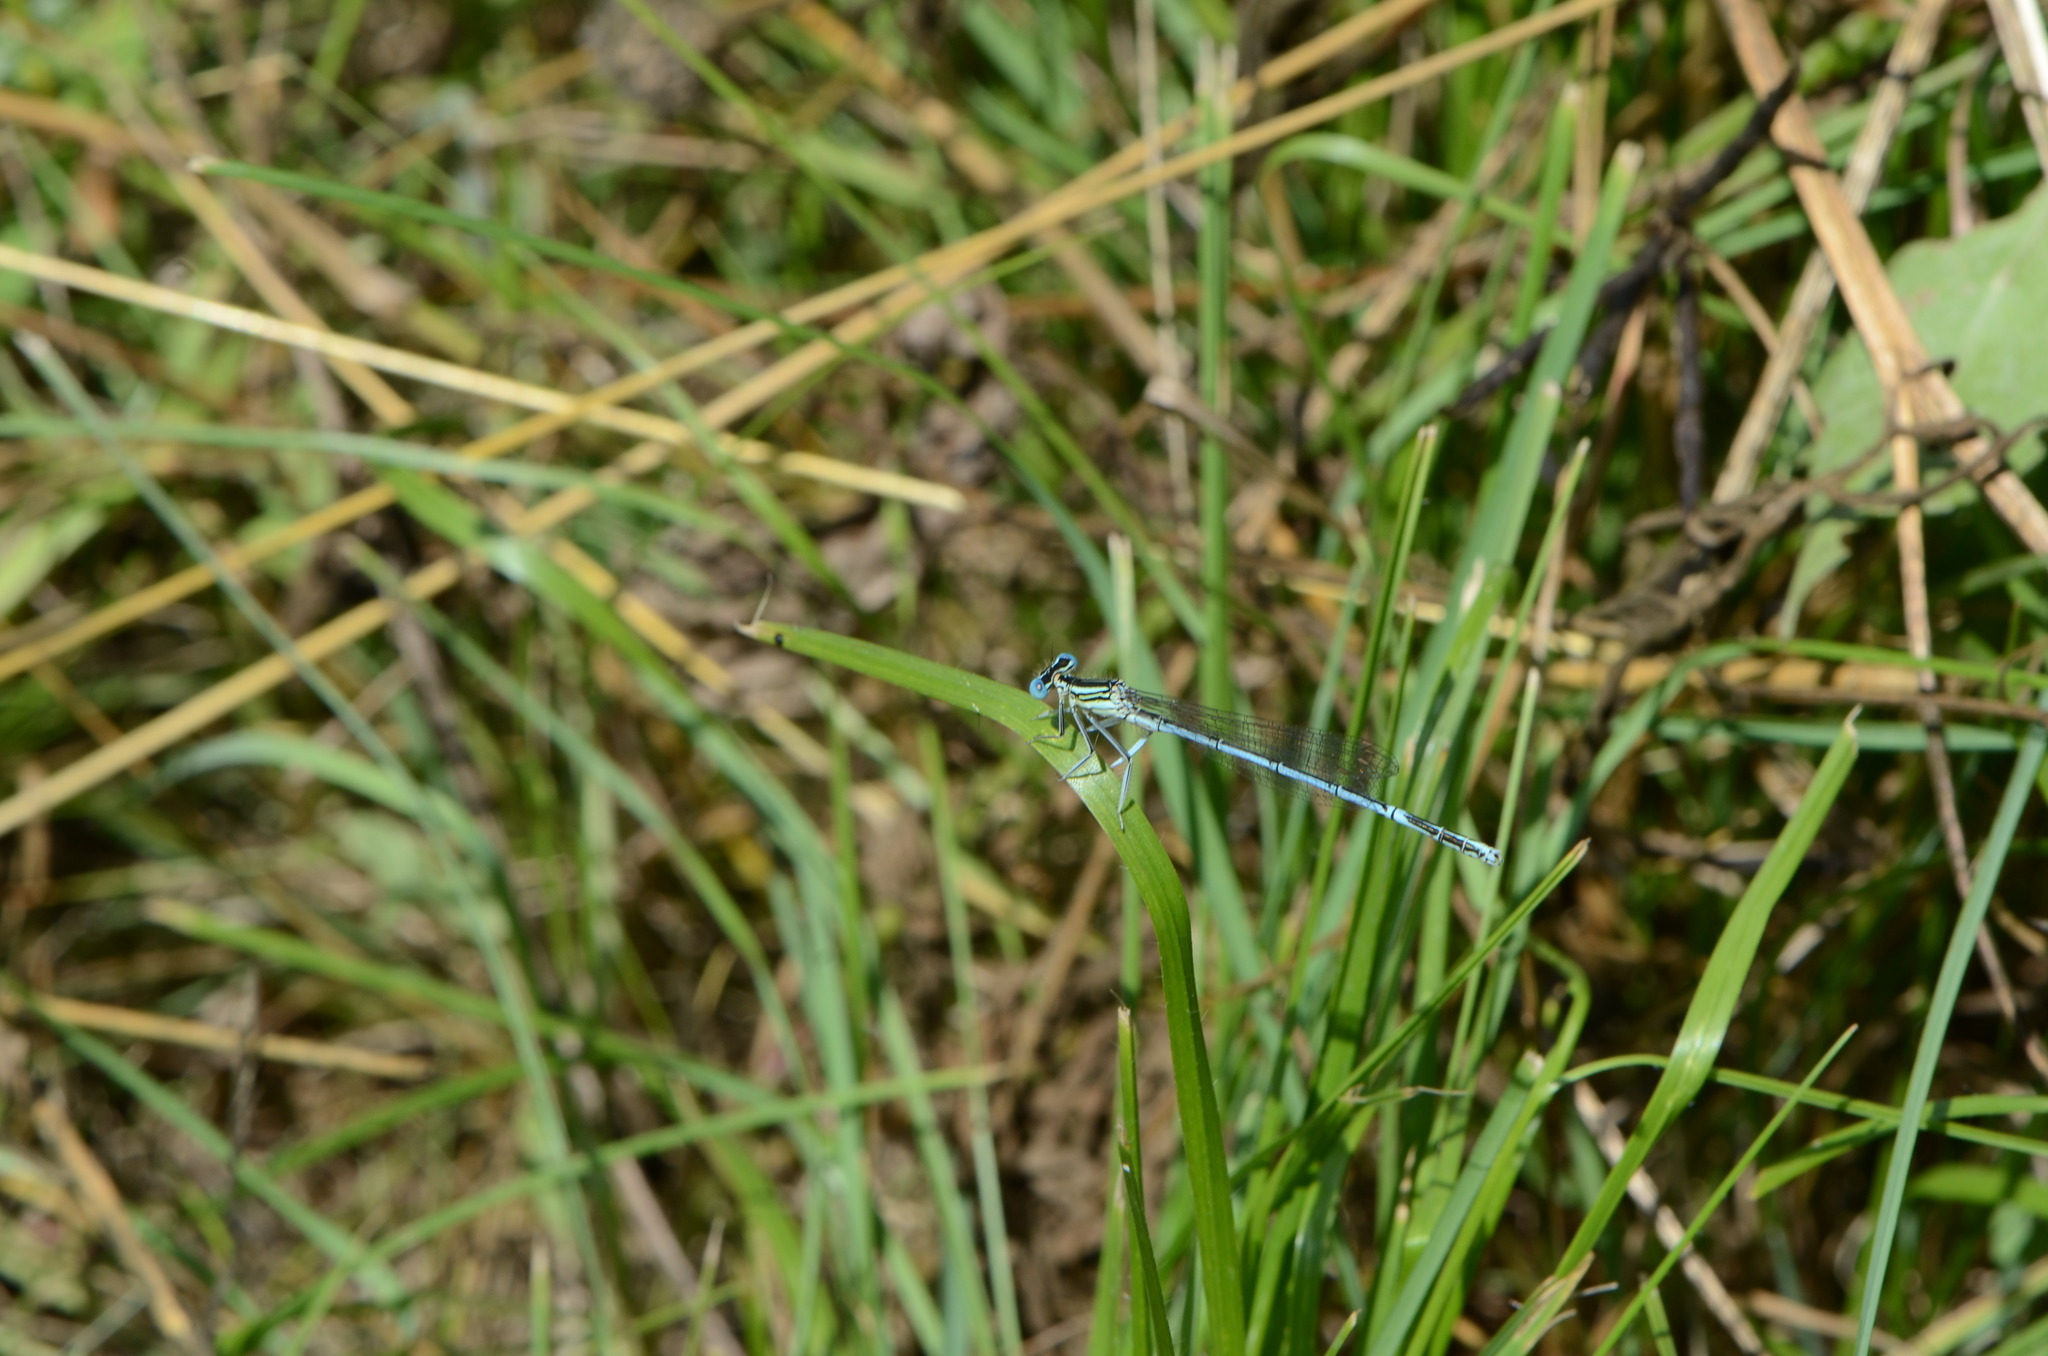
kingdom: Animalia
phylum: Arthropoda
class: Insecta
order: Odonata
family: Platycnemididae
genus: Platycnemis
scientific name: Platycnemis pennipes
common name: White-legged damselfly
